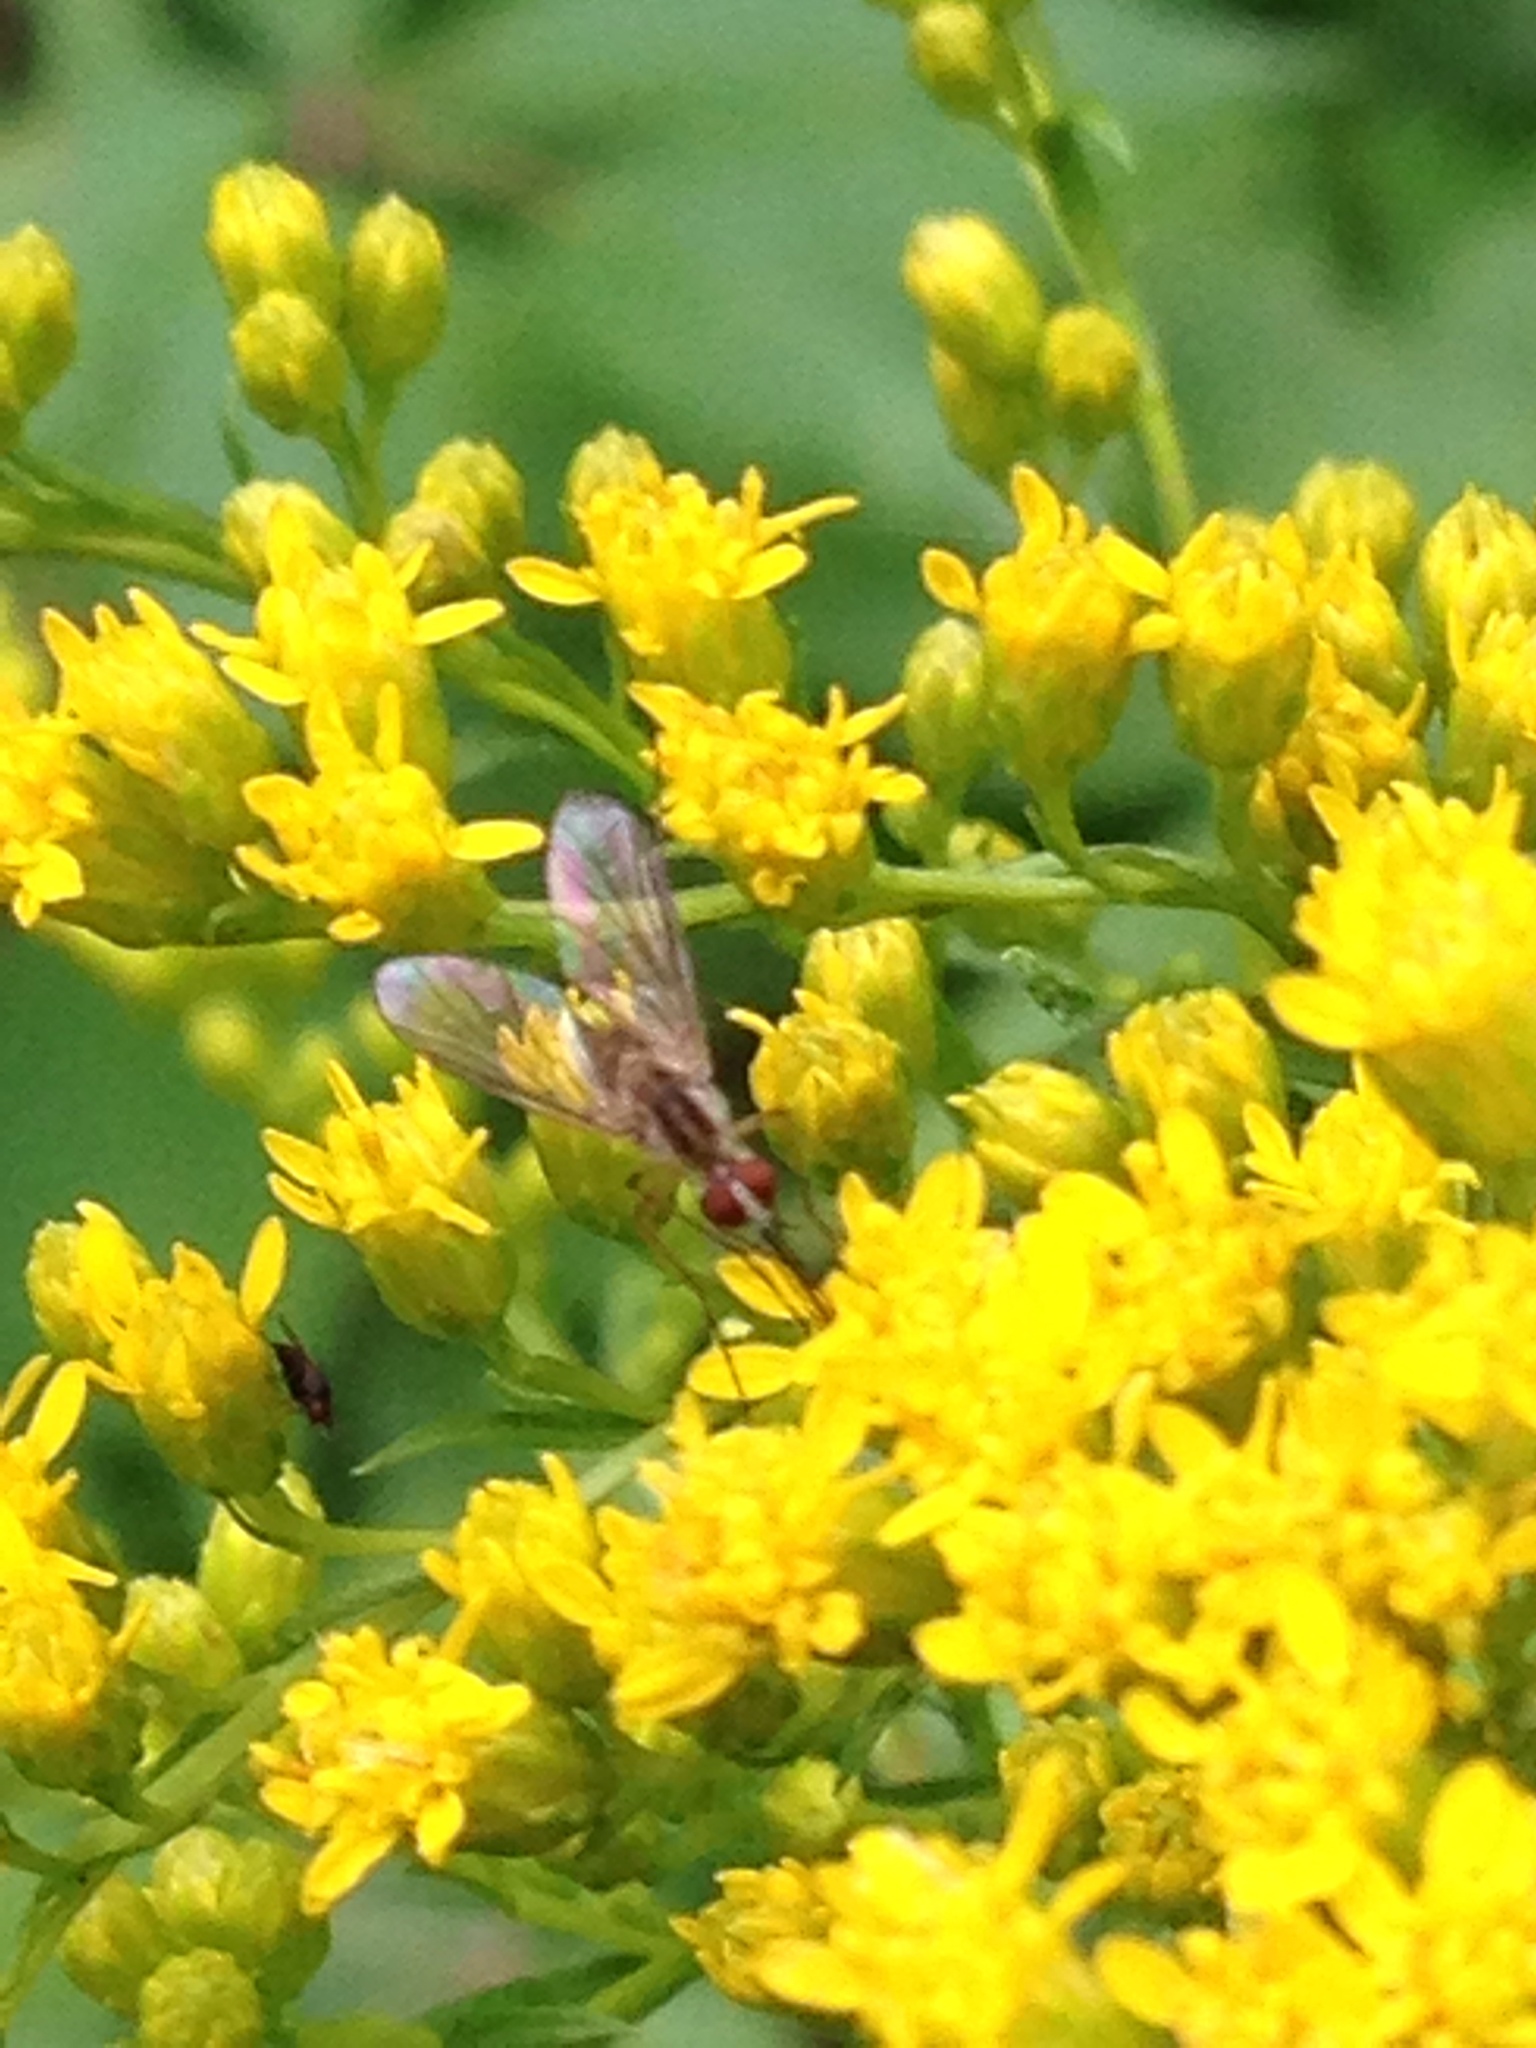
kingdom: Animalia
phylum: Arthropoda
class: Insecta
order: Diptera
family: Bombyliidae
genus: Geron
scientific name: Geron calvus
